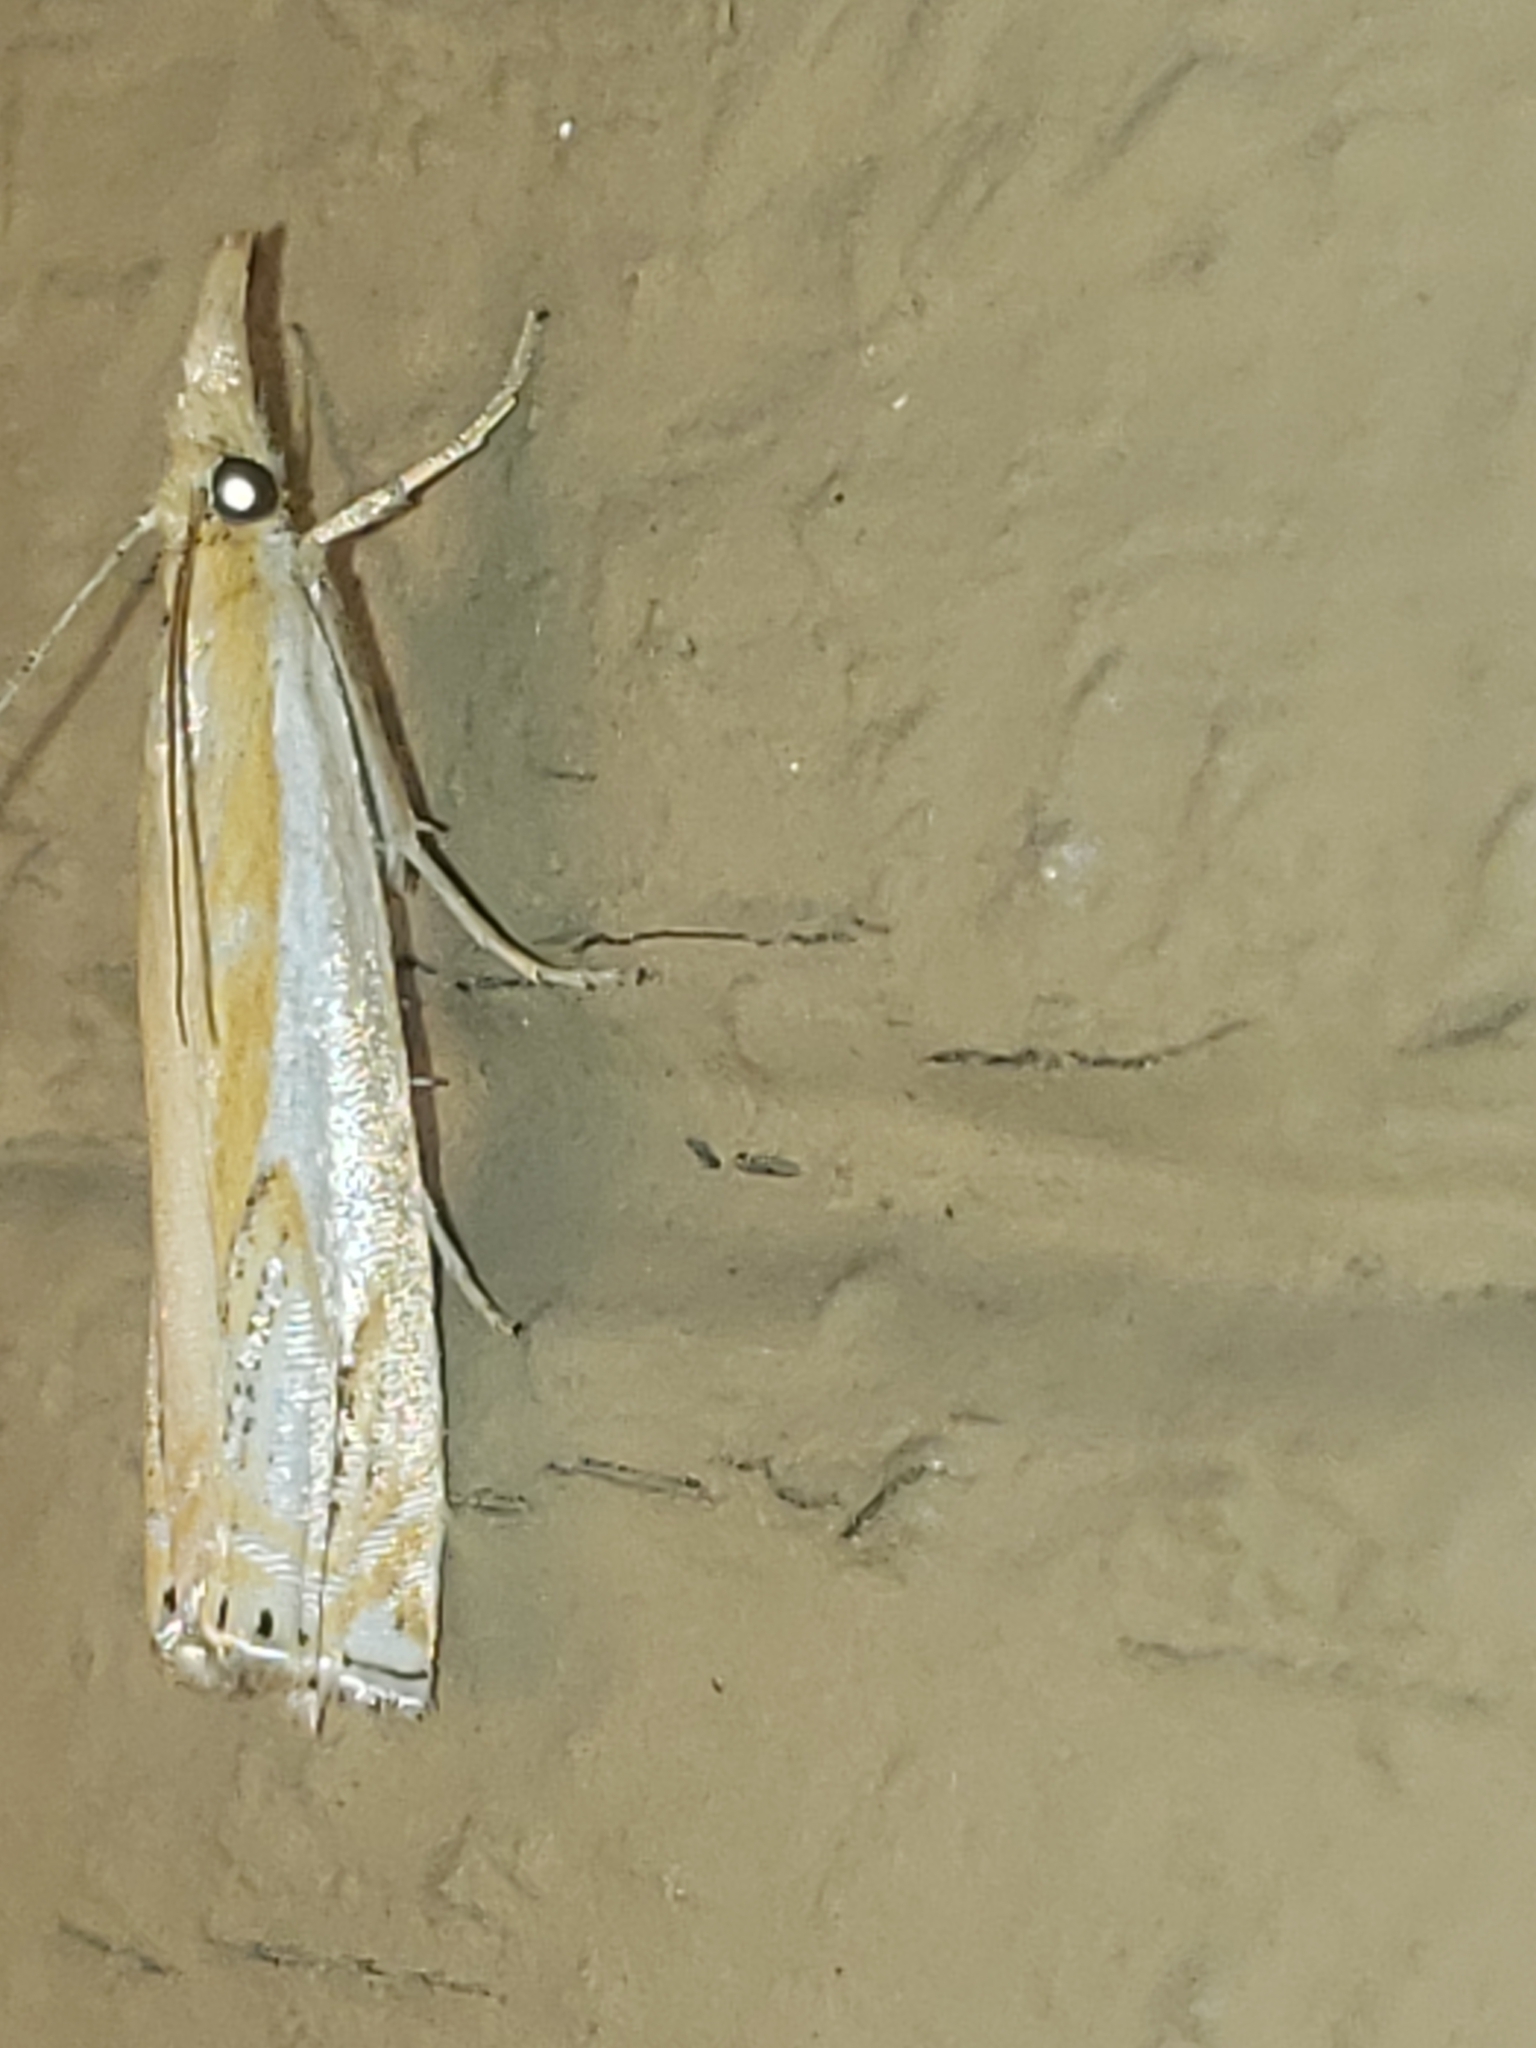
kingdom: Animalia
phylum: Arthropoda
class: Insecta
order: Lepidoptera
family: Crambidae
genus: Crambus
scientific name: Crambus agitatellus
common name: Double-banded grass-veneer
